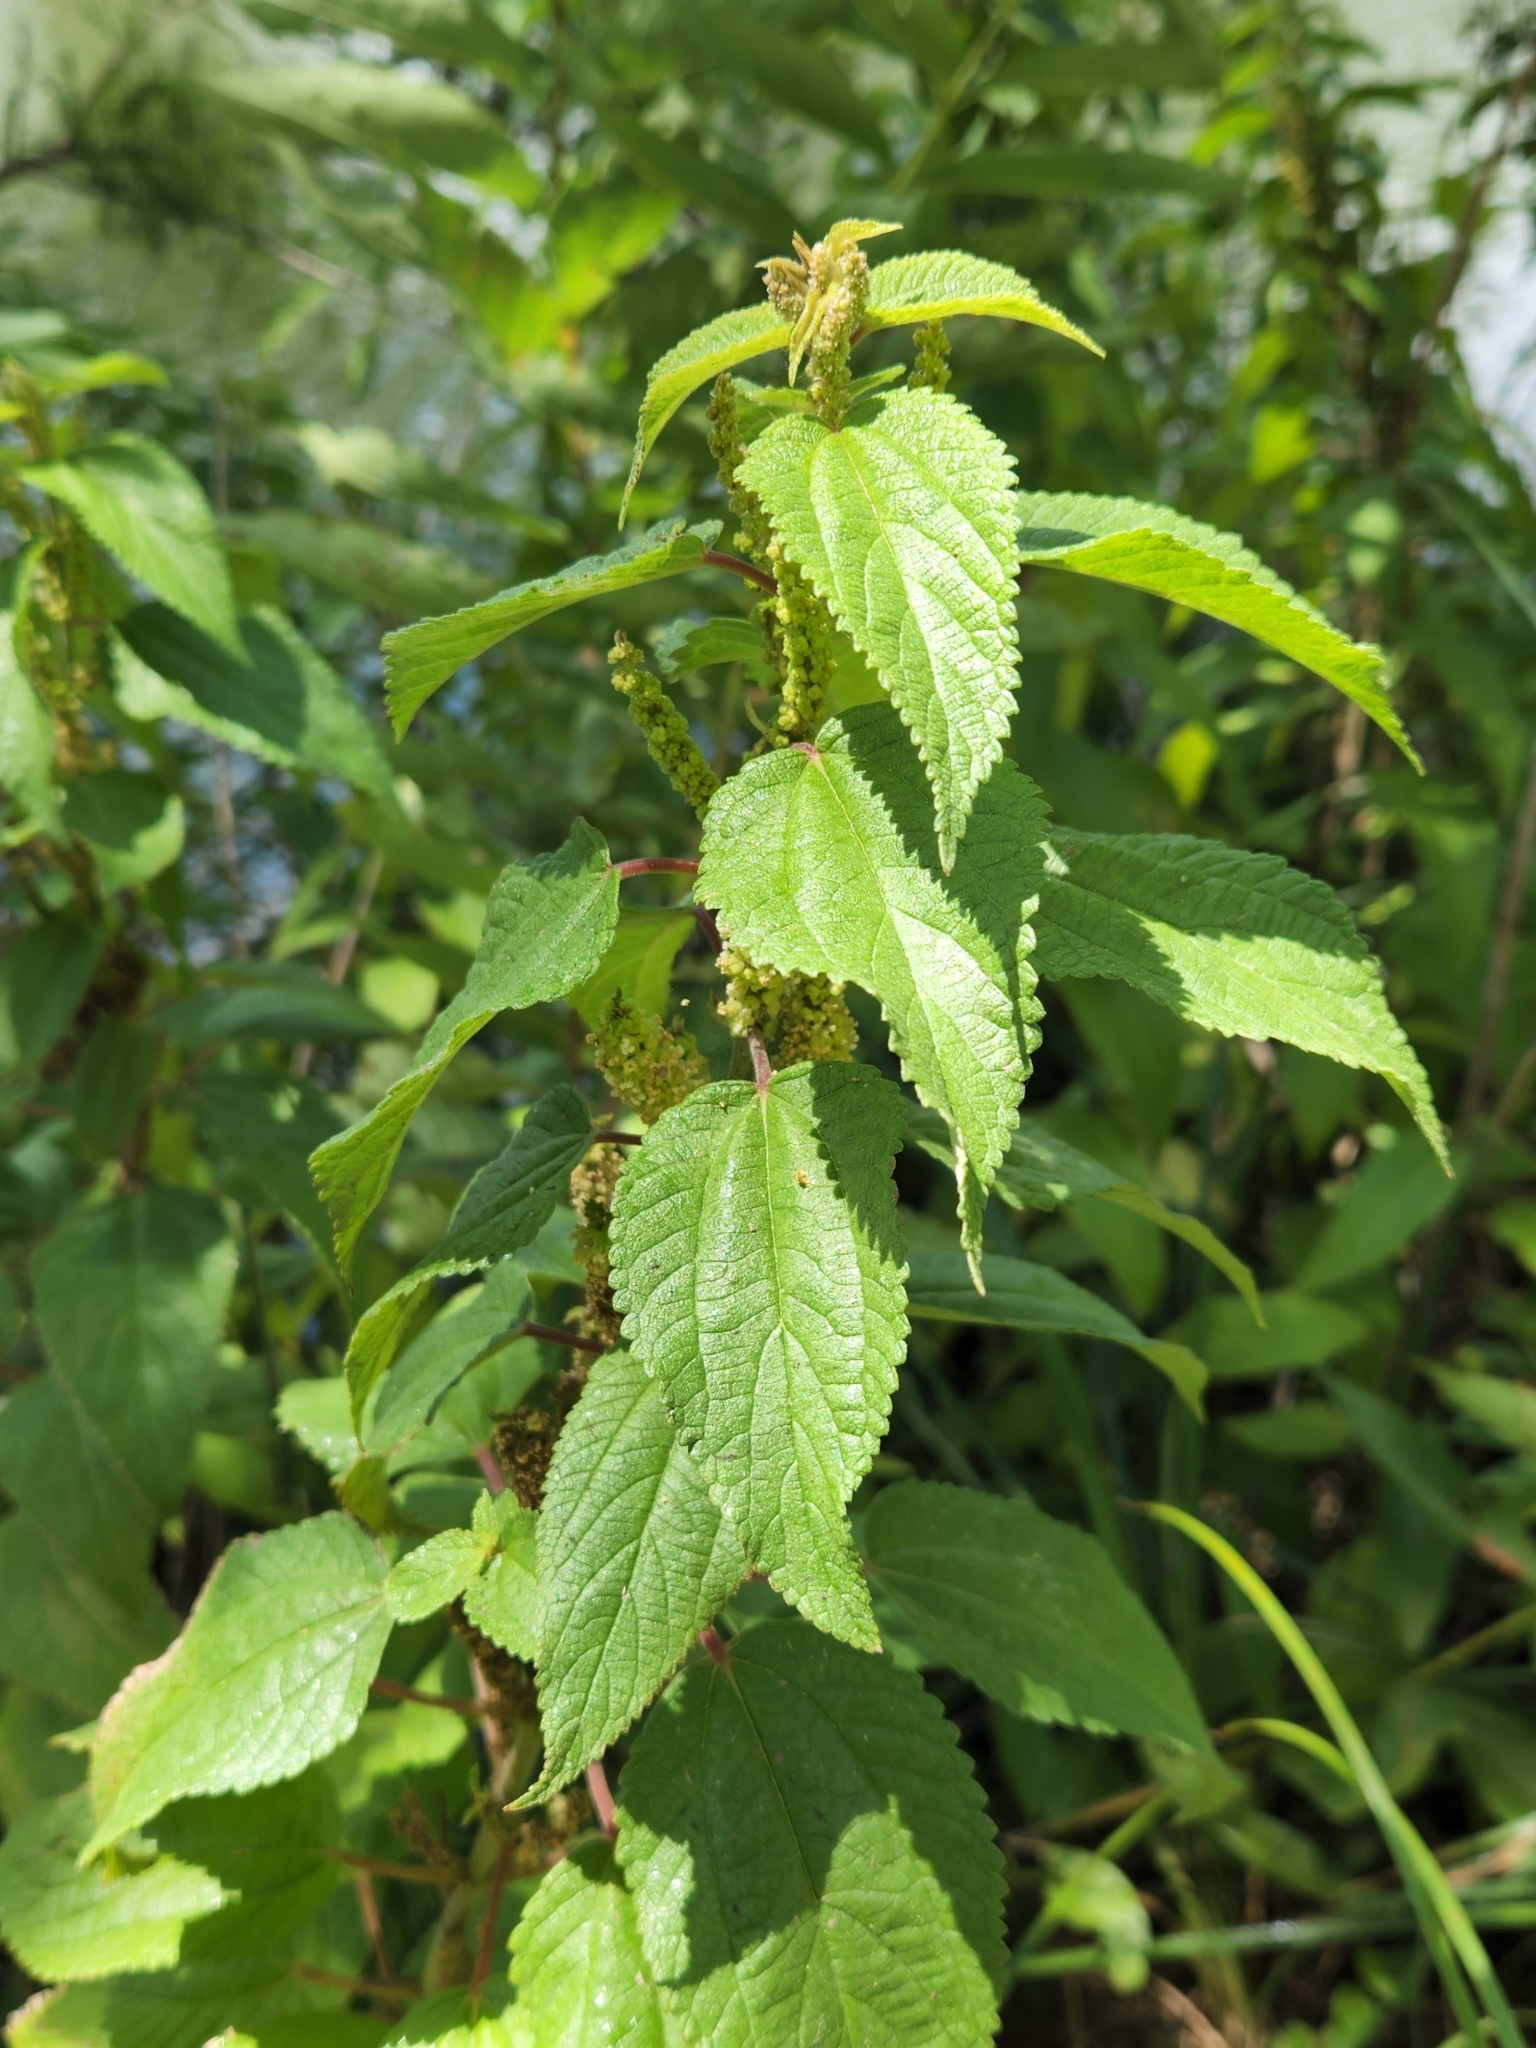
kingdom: Plantae
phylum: Tracheophyta
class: Magnoliopsida
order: Rosales
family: Urticaceae
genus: Boehmeria
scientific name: Boehmeria cylindrica
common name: Bog-hemp
